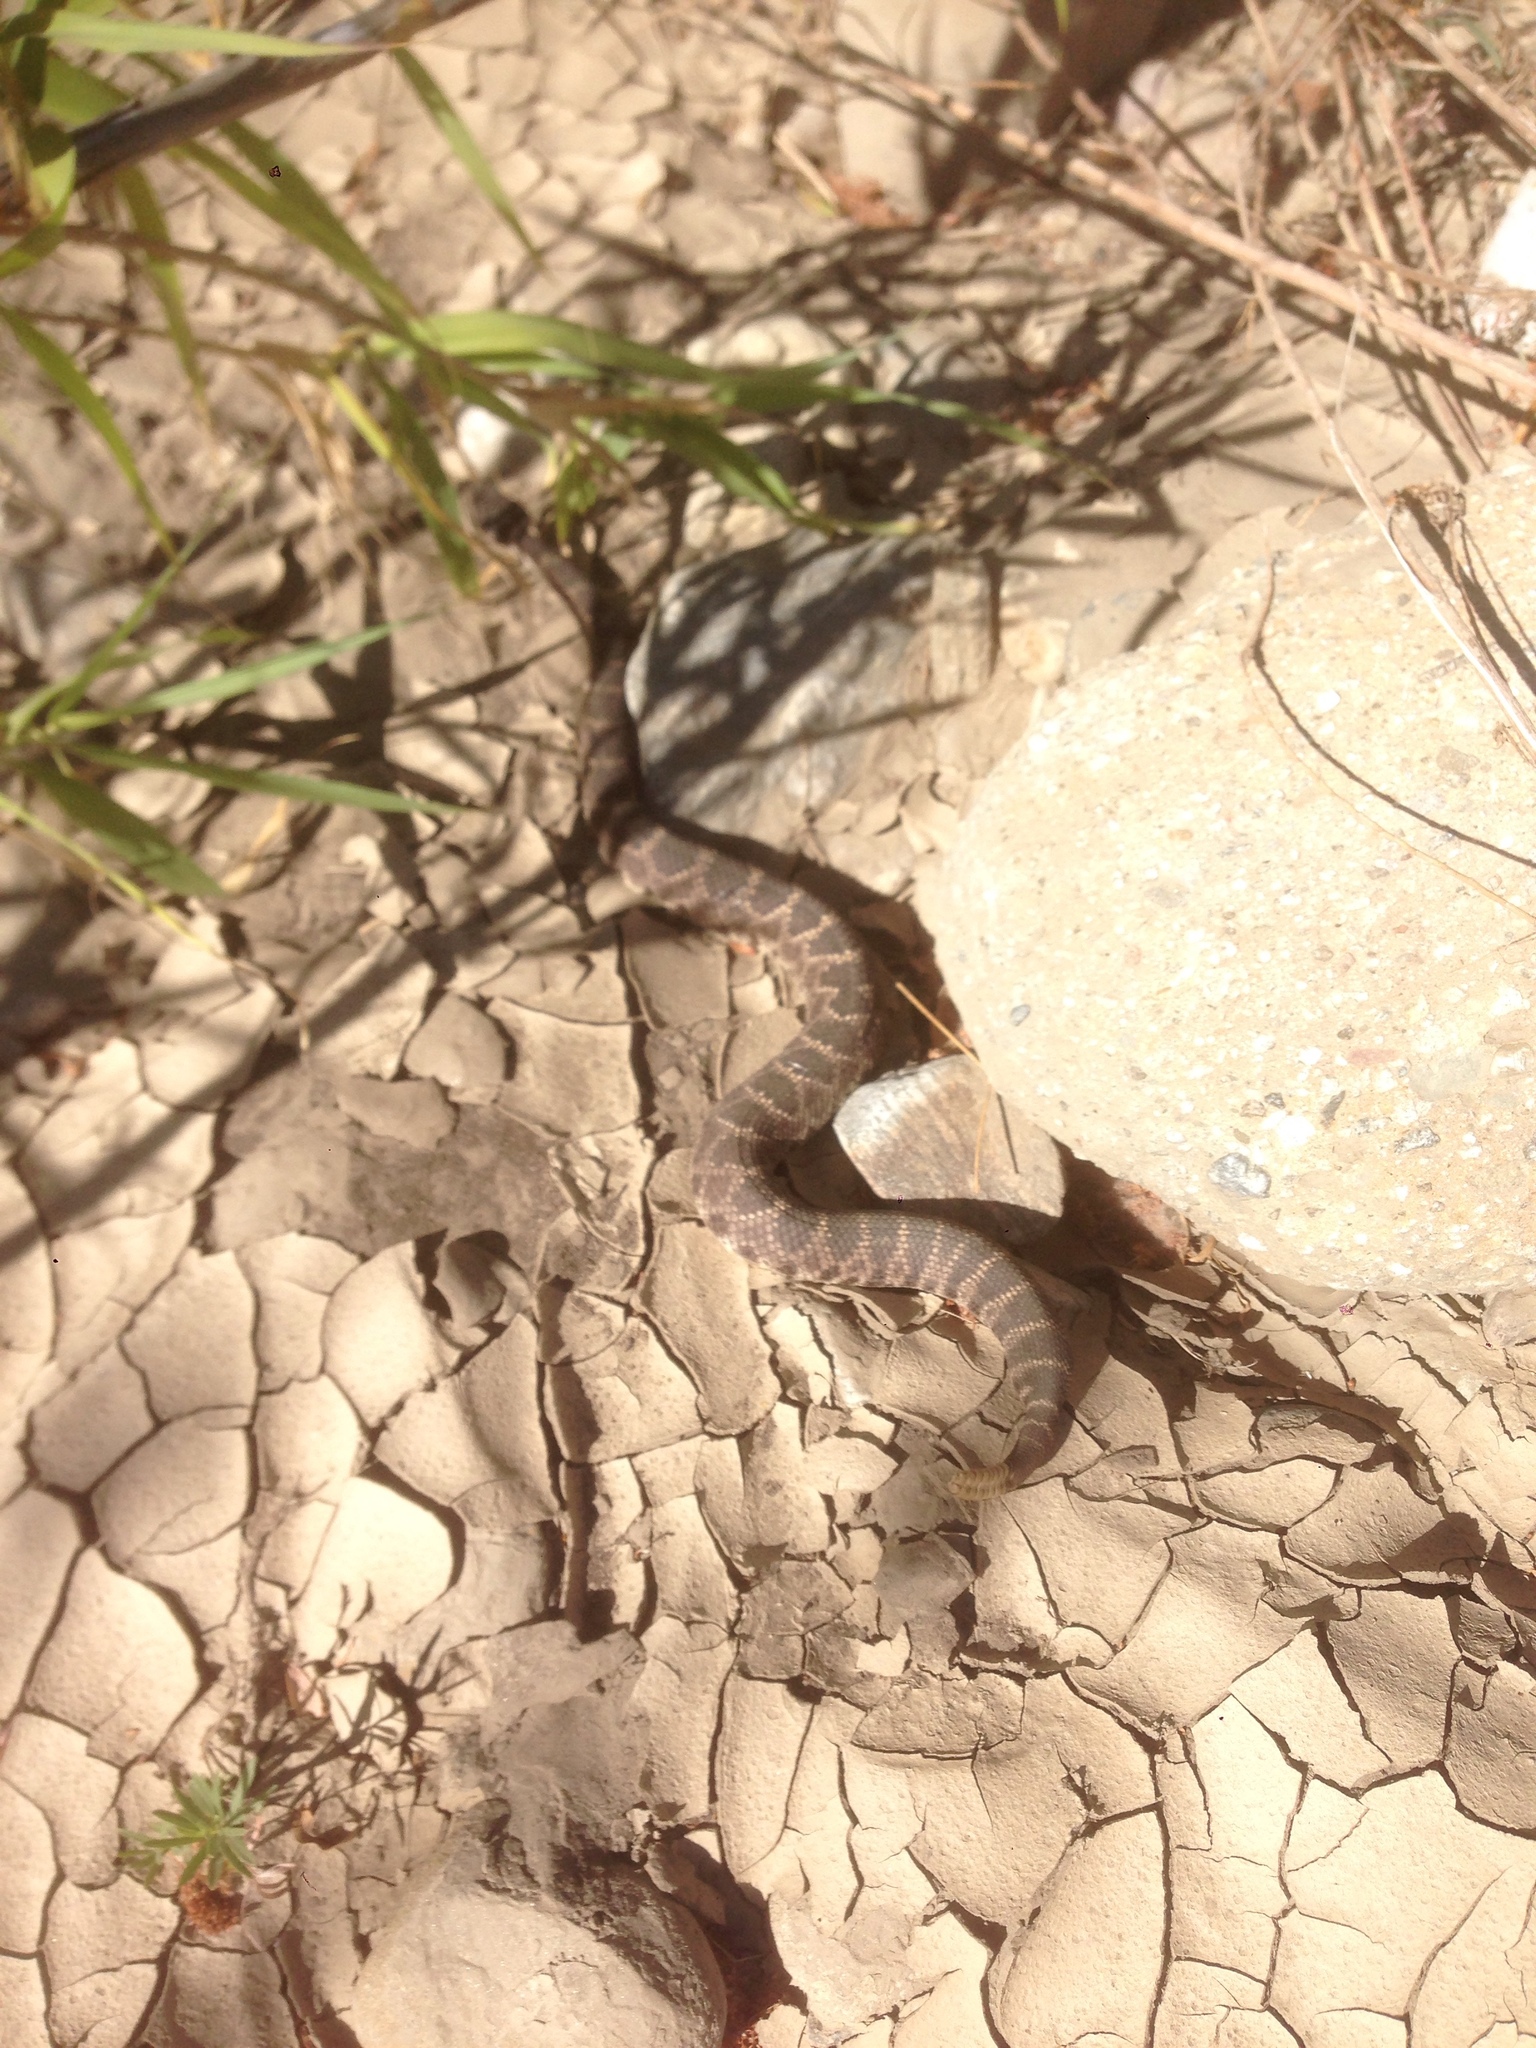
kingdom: Animalia
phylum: Chordata
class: Squamata
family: Viperidae
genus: Crotalus
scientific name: Crotalus oreganus
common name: Abyssus
